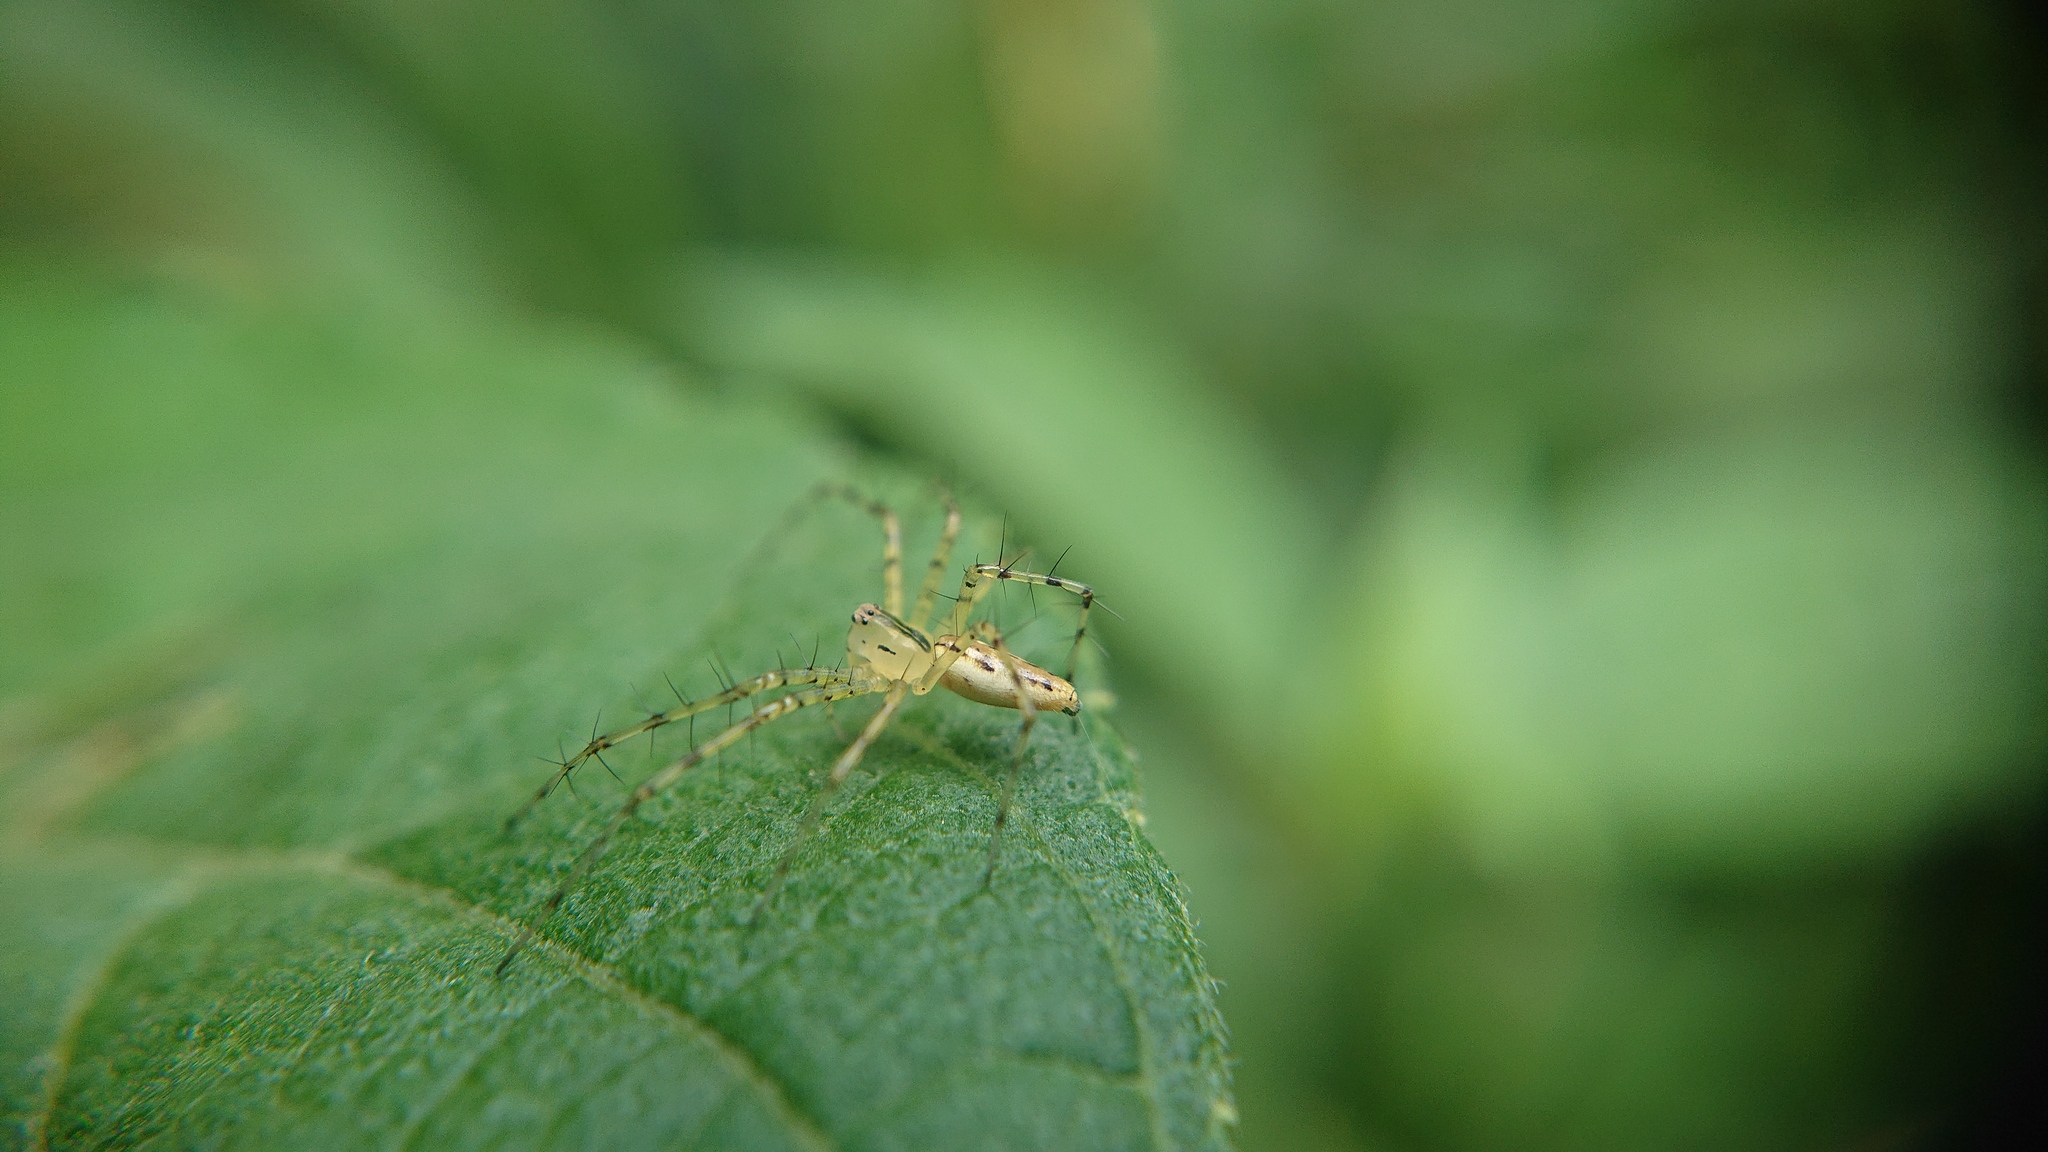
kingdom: Animalia
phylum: Arthropoda
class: Arachnida
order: Araneae
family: Oxyopidae
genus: Peucetia
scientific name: Peucetia rubrolineata
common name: Lynx spiders
